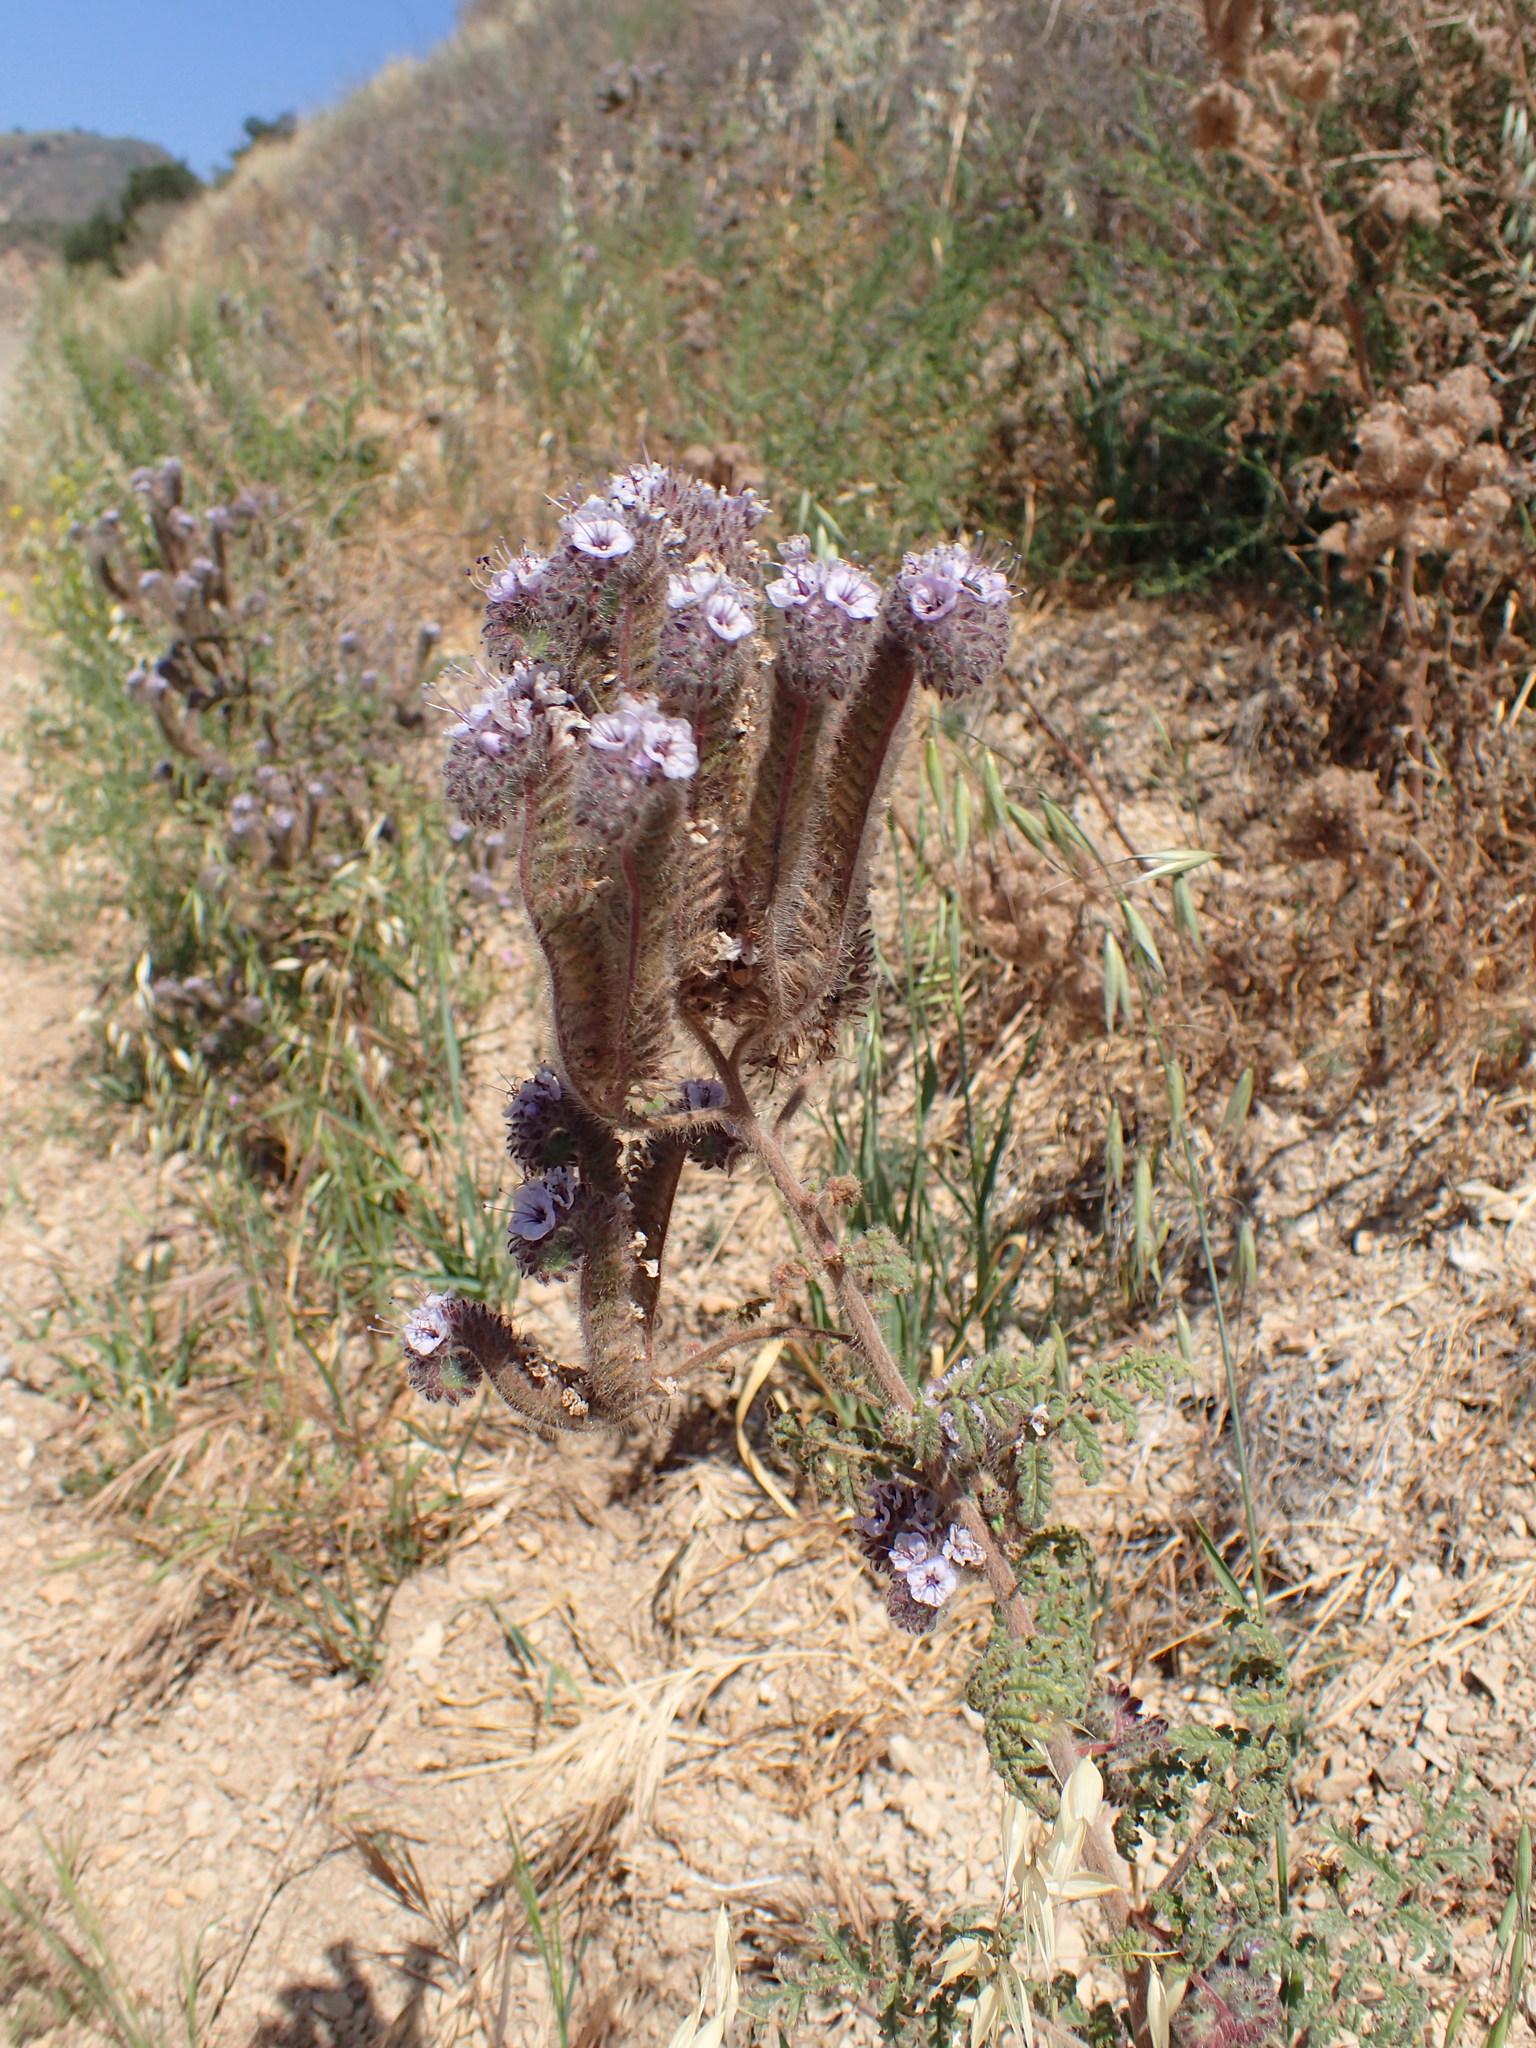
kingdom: Plantae
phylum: Tracheophyta
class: Magnoliopsida
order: Boraginales
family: Hydrophyllaceae
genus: Phacelia
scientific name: Phacelia hubbyi
